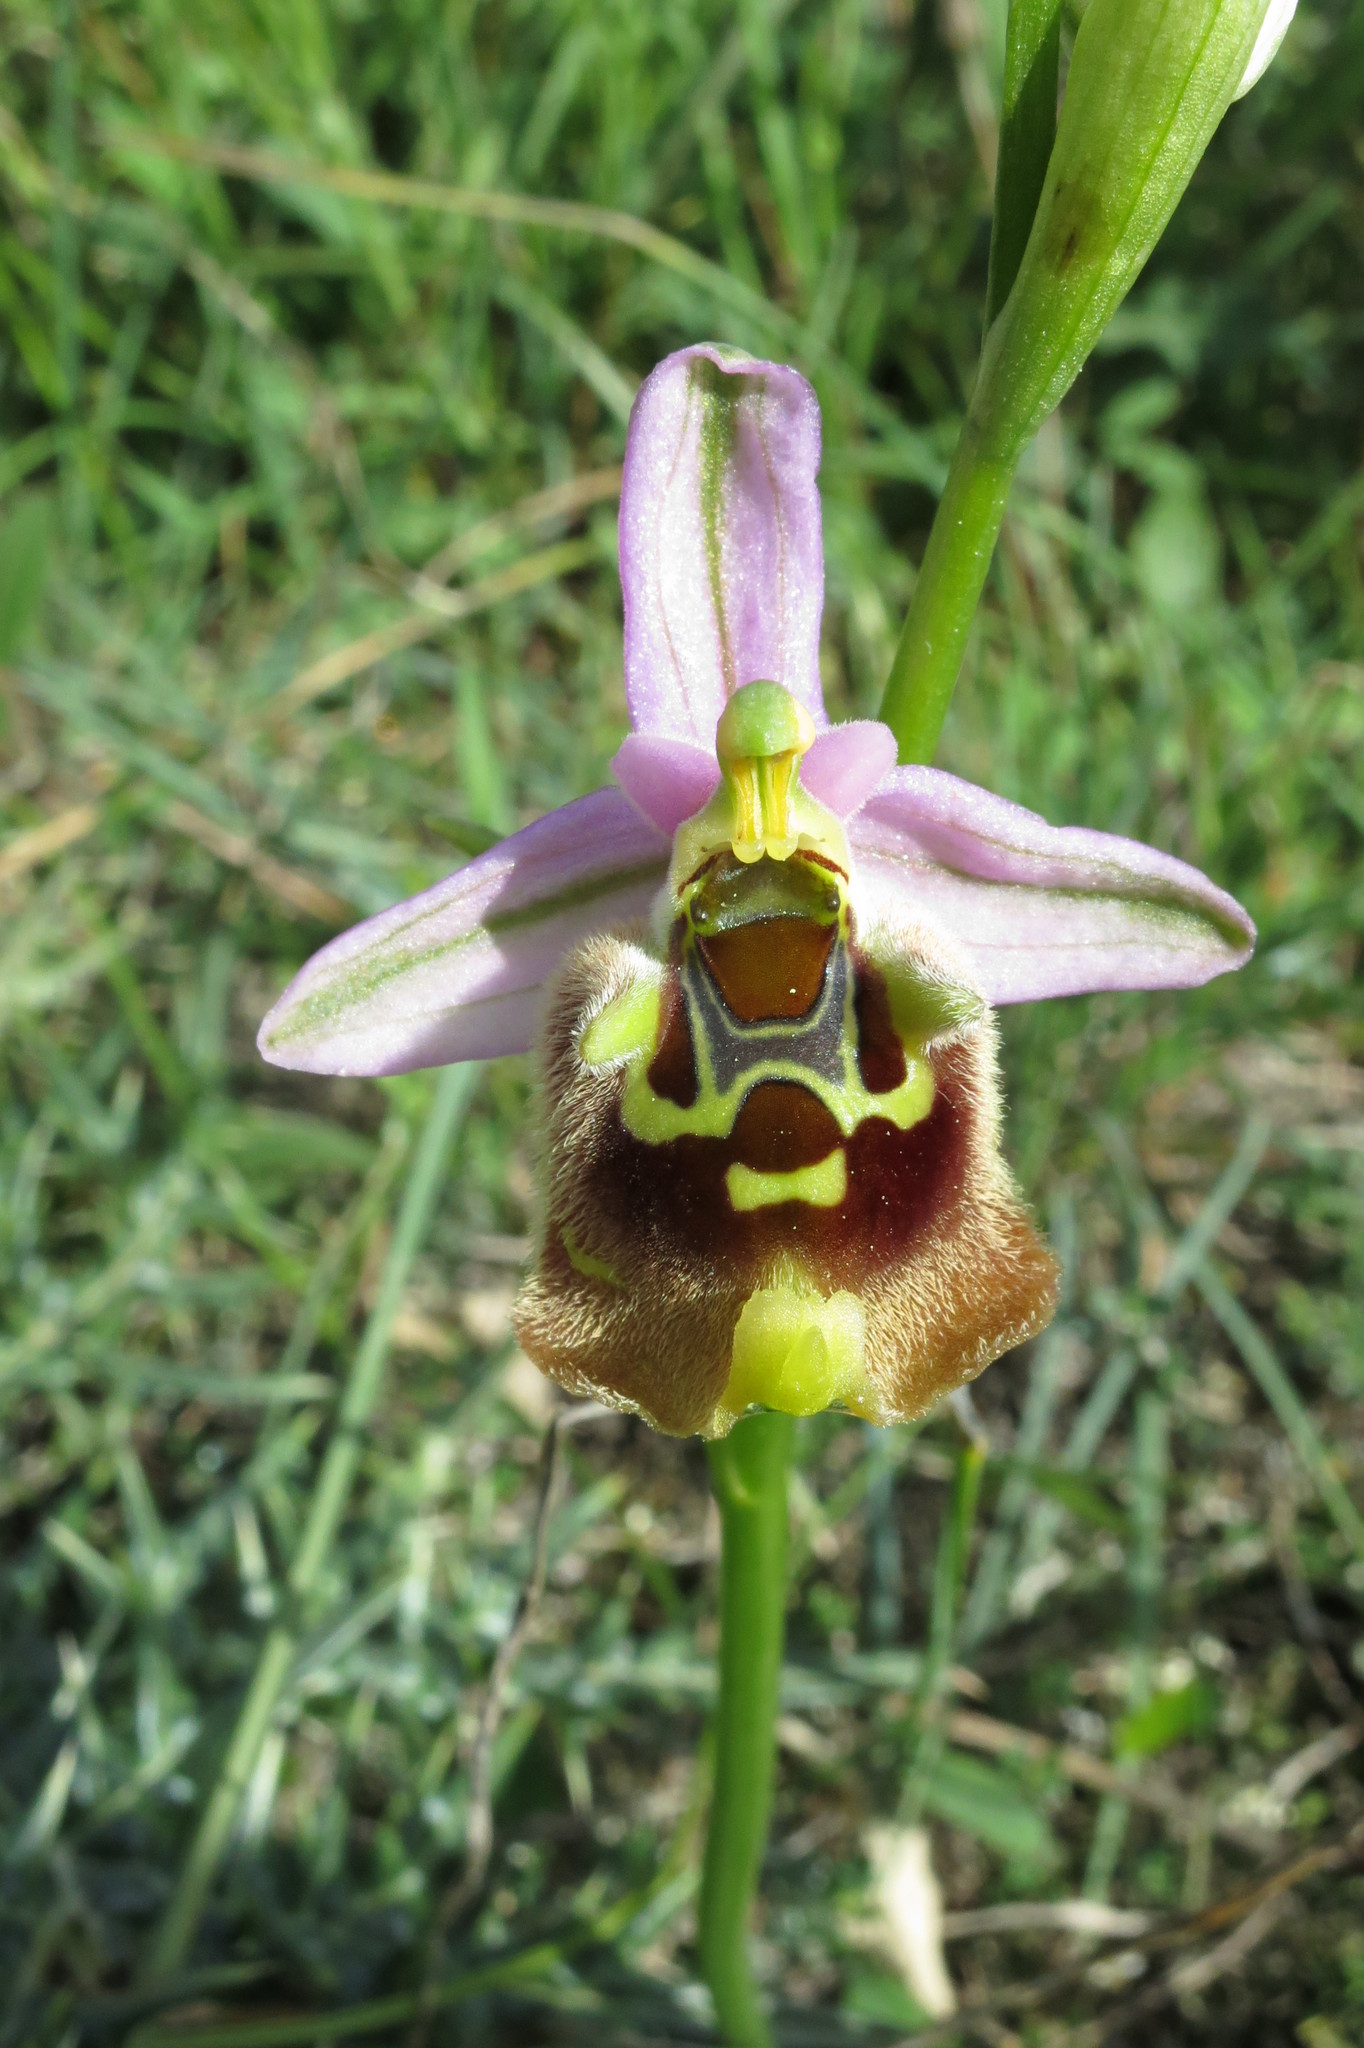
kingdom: Plantae
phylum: Tracheophyta
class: Liliopsida
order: Asparagales
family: Orchidaceae
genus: Ophrys
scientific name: Ophrys holosericea
